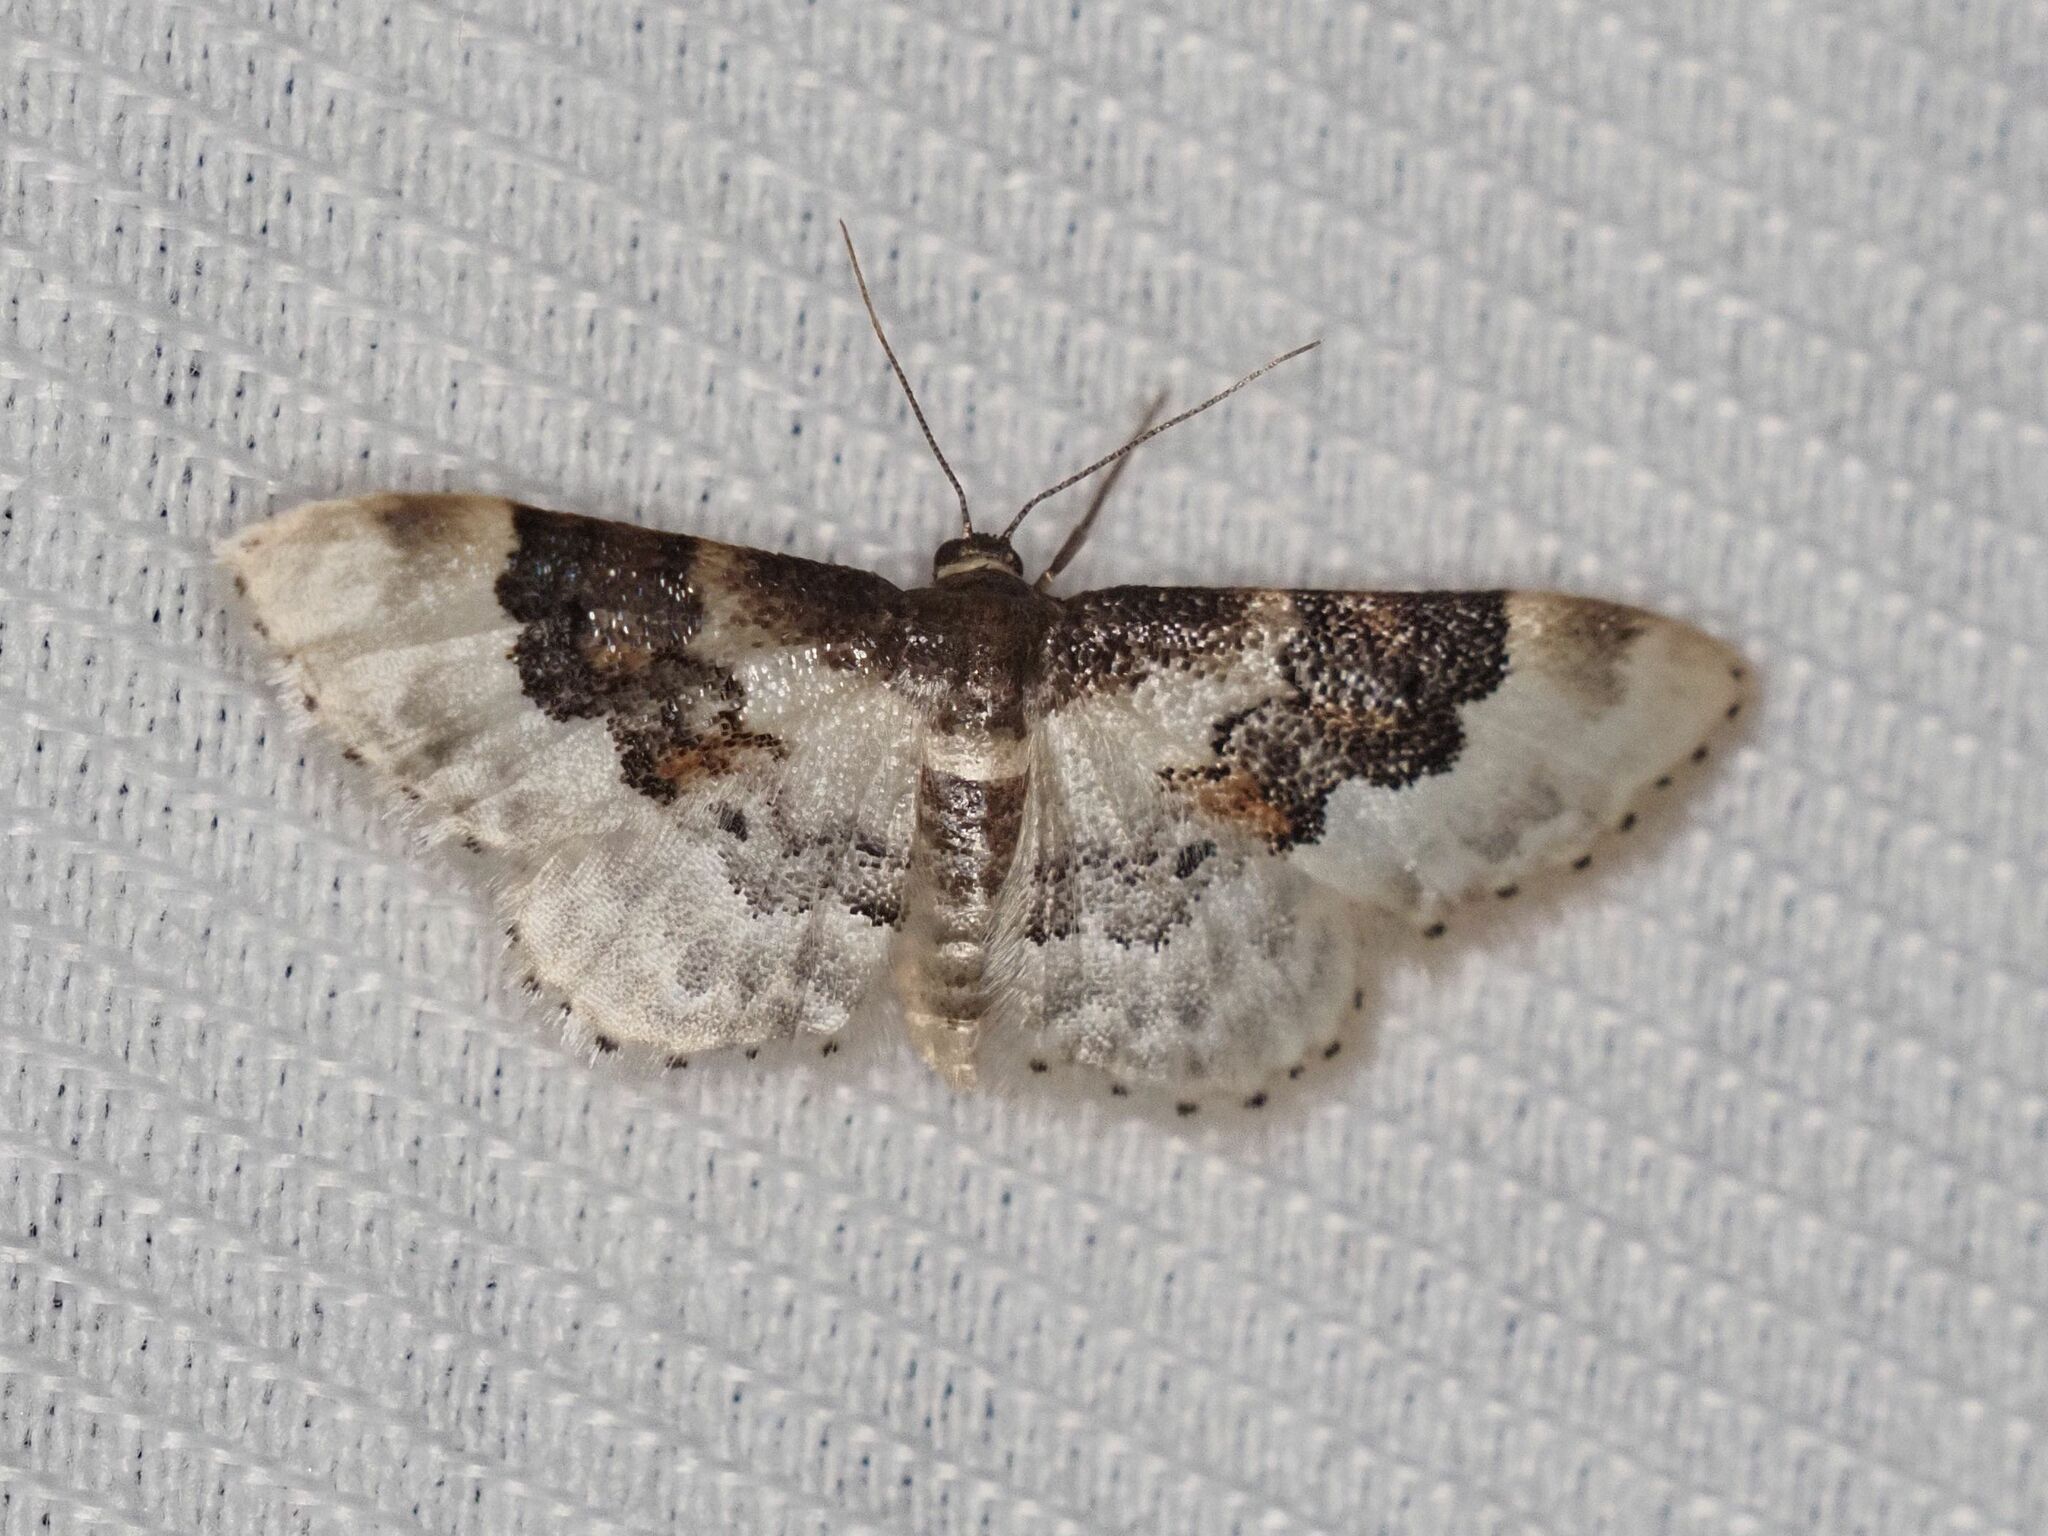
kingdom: Animalia
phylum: Arthropoda
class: Insecta
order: Lepidoptera
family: Geometridae
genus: Idaea
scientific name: Idaea rusticata
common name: Least carpet
